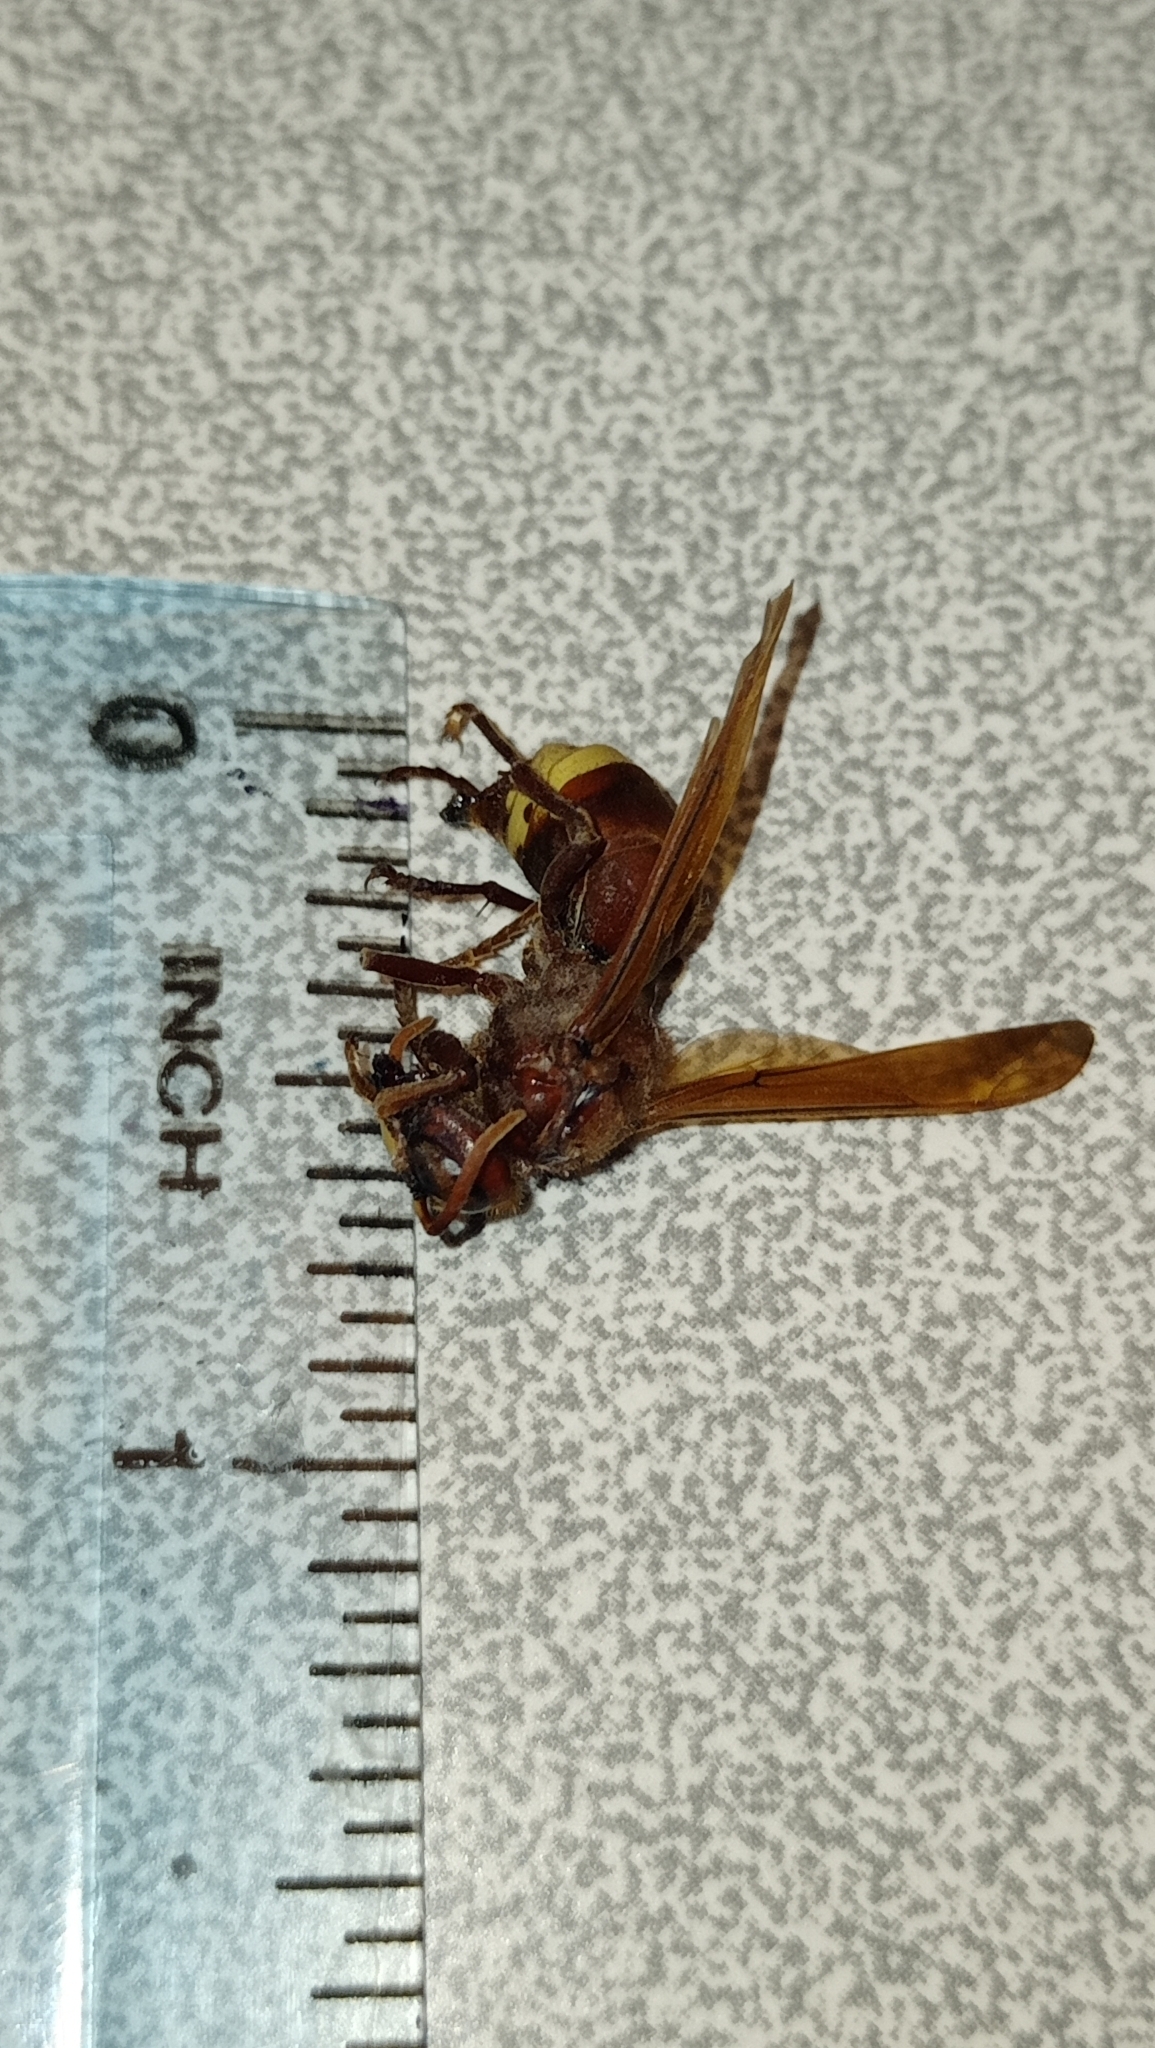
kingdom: Animalia
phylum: Arthropoda
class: Insecta
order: Hymenoptera
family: Vespidae
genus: Vespa
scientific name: Vespa orientalis
